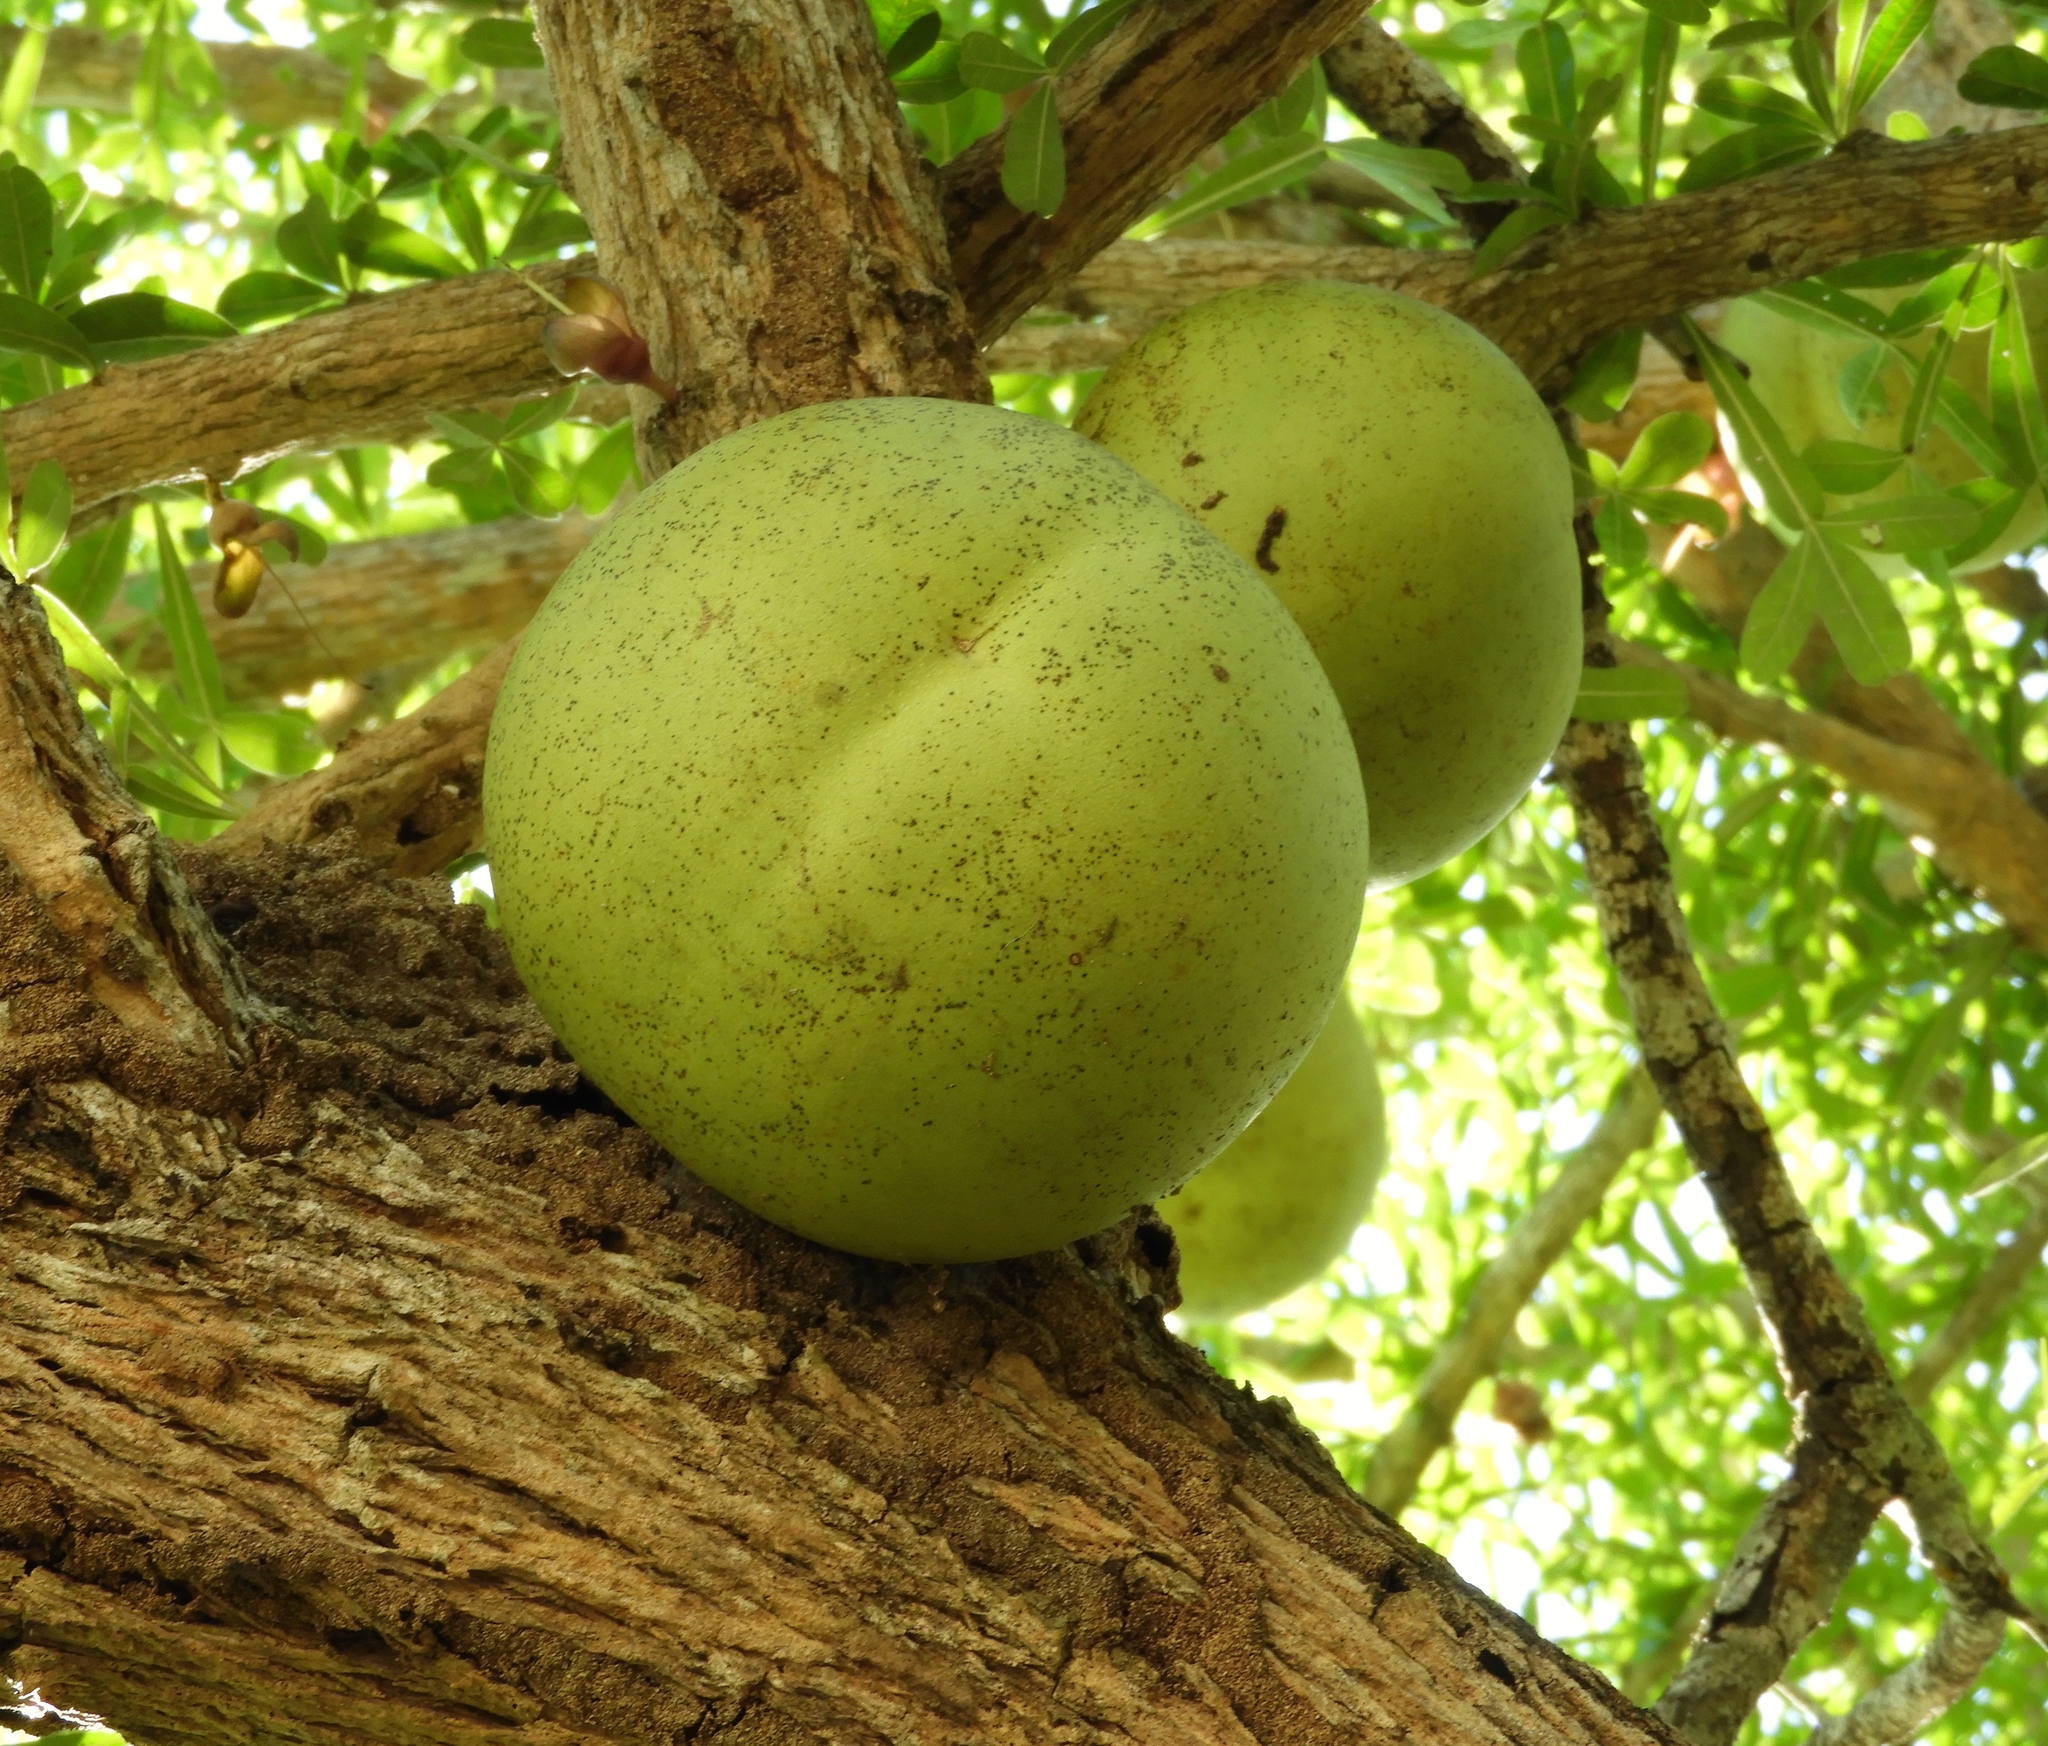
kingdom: Plantae
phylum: Tracheophyta
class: Magnoliopsida
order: Lamiales
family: Bignoniaceae
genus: Crescentia
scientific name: Crescentia alata
